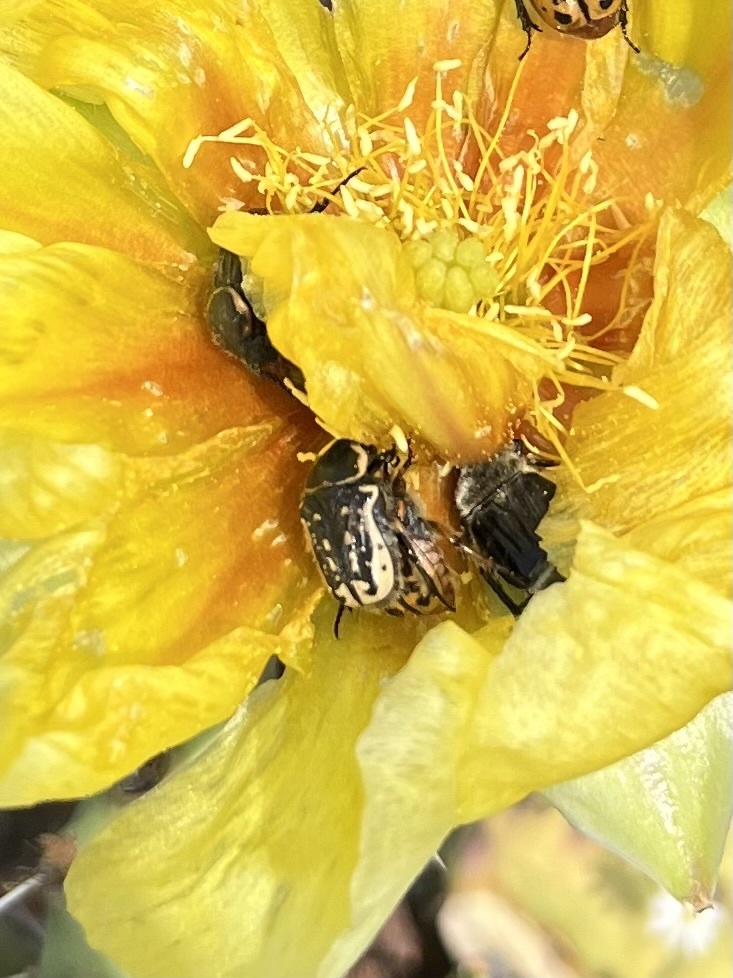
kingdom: Animalia
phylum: Arthropoda
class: Insecta
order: Coleoptera
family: Scarabaeidae
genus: Euphoria
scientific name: Euphoria kernii
